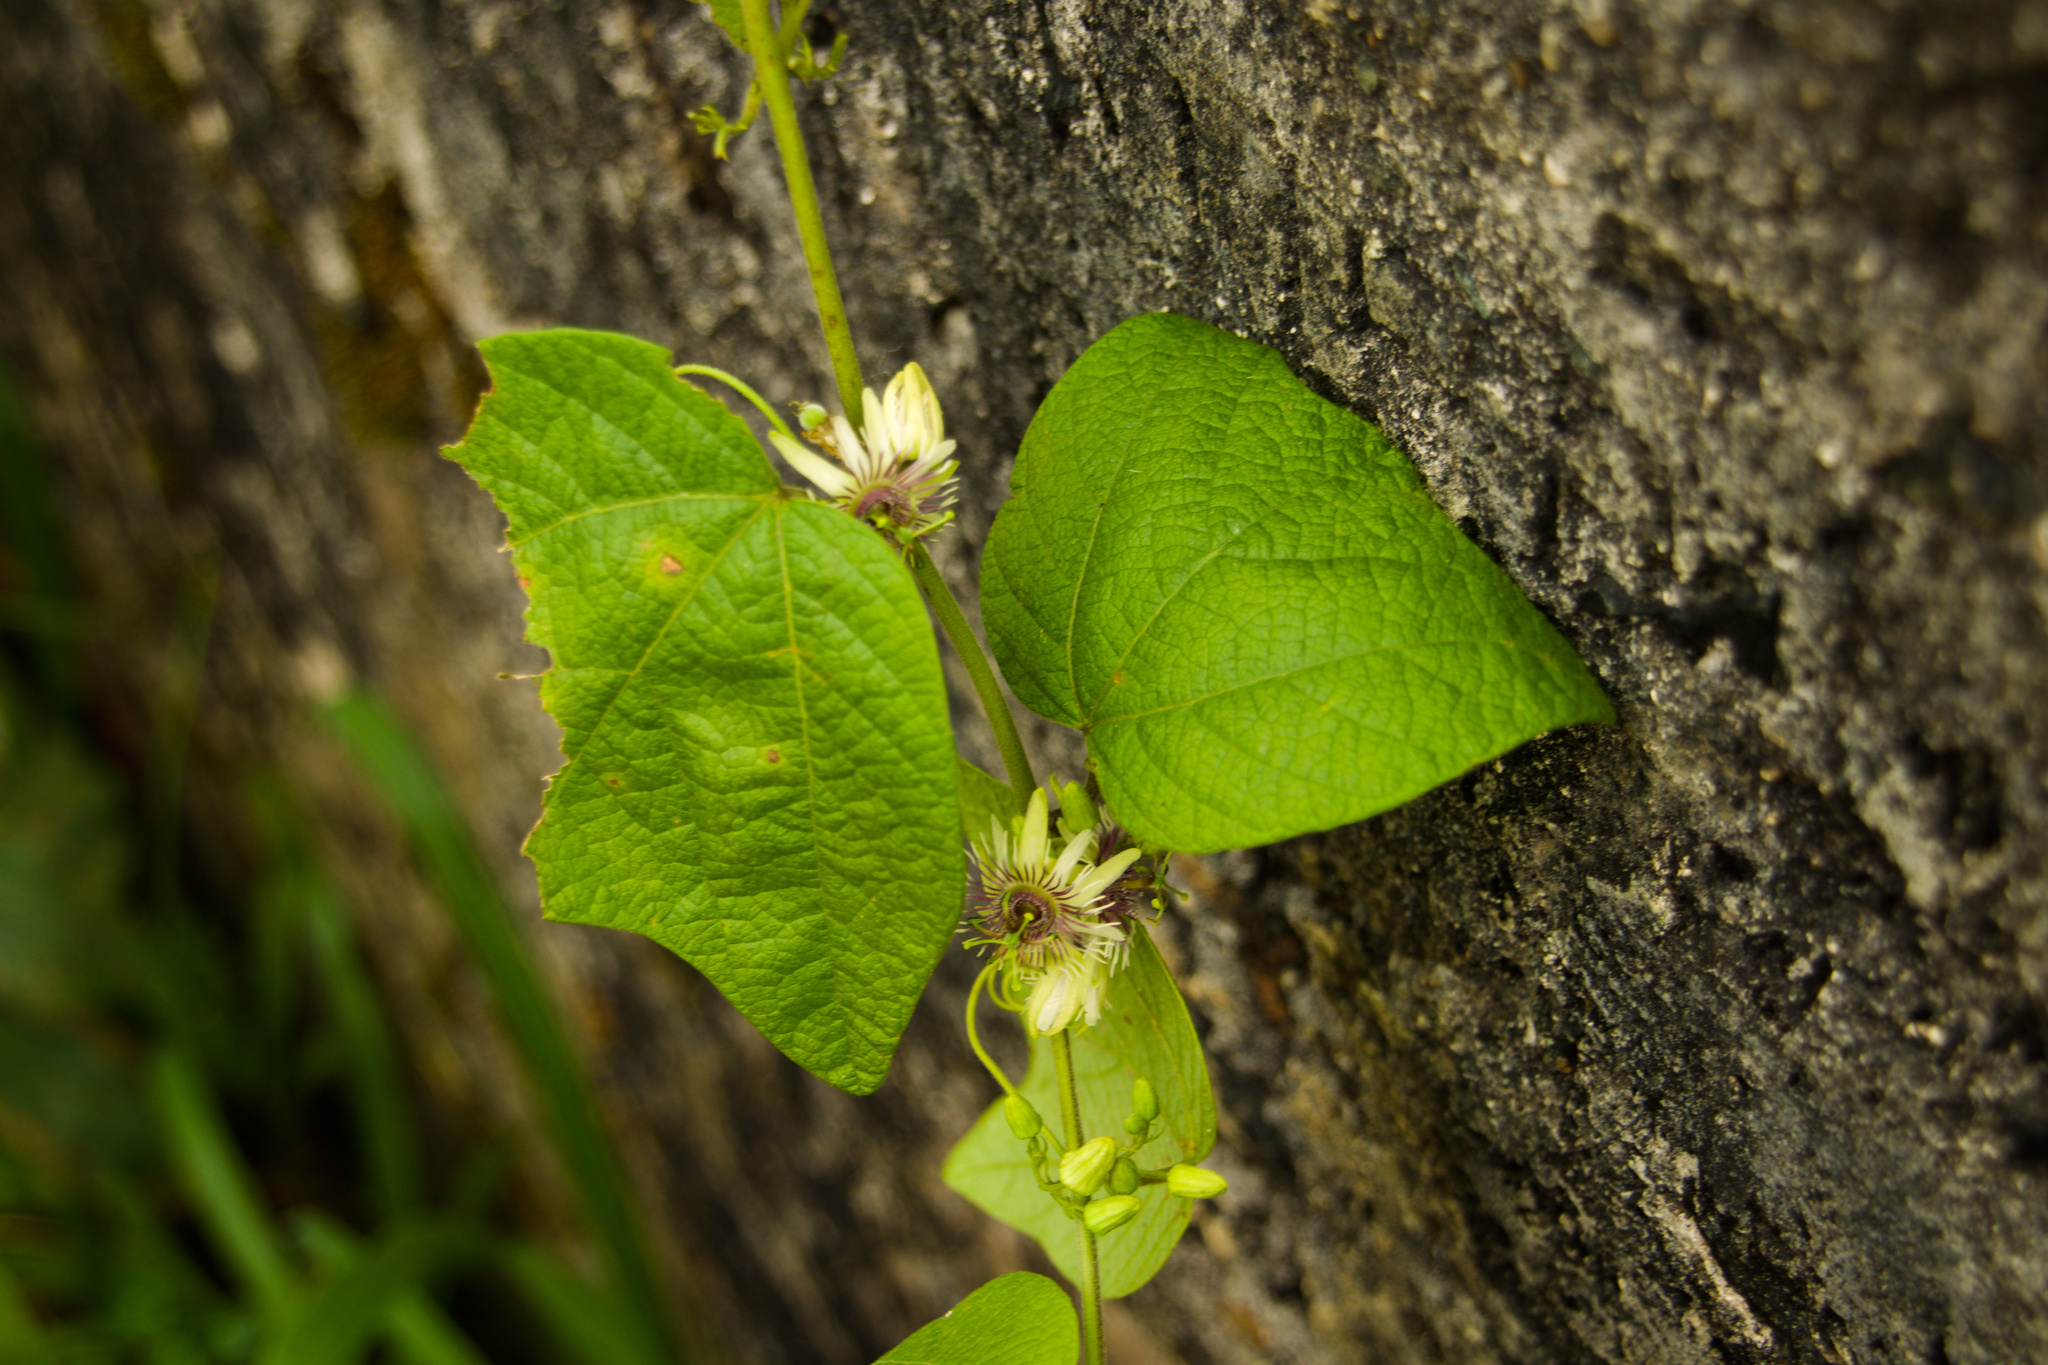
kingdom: Plantae
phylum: Tracheophyta
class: Magnoliopsida
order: Malpighiales
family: Passifloraceae
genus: Passiflora
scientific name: Passiflora sexflora
